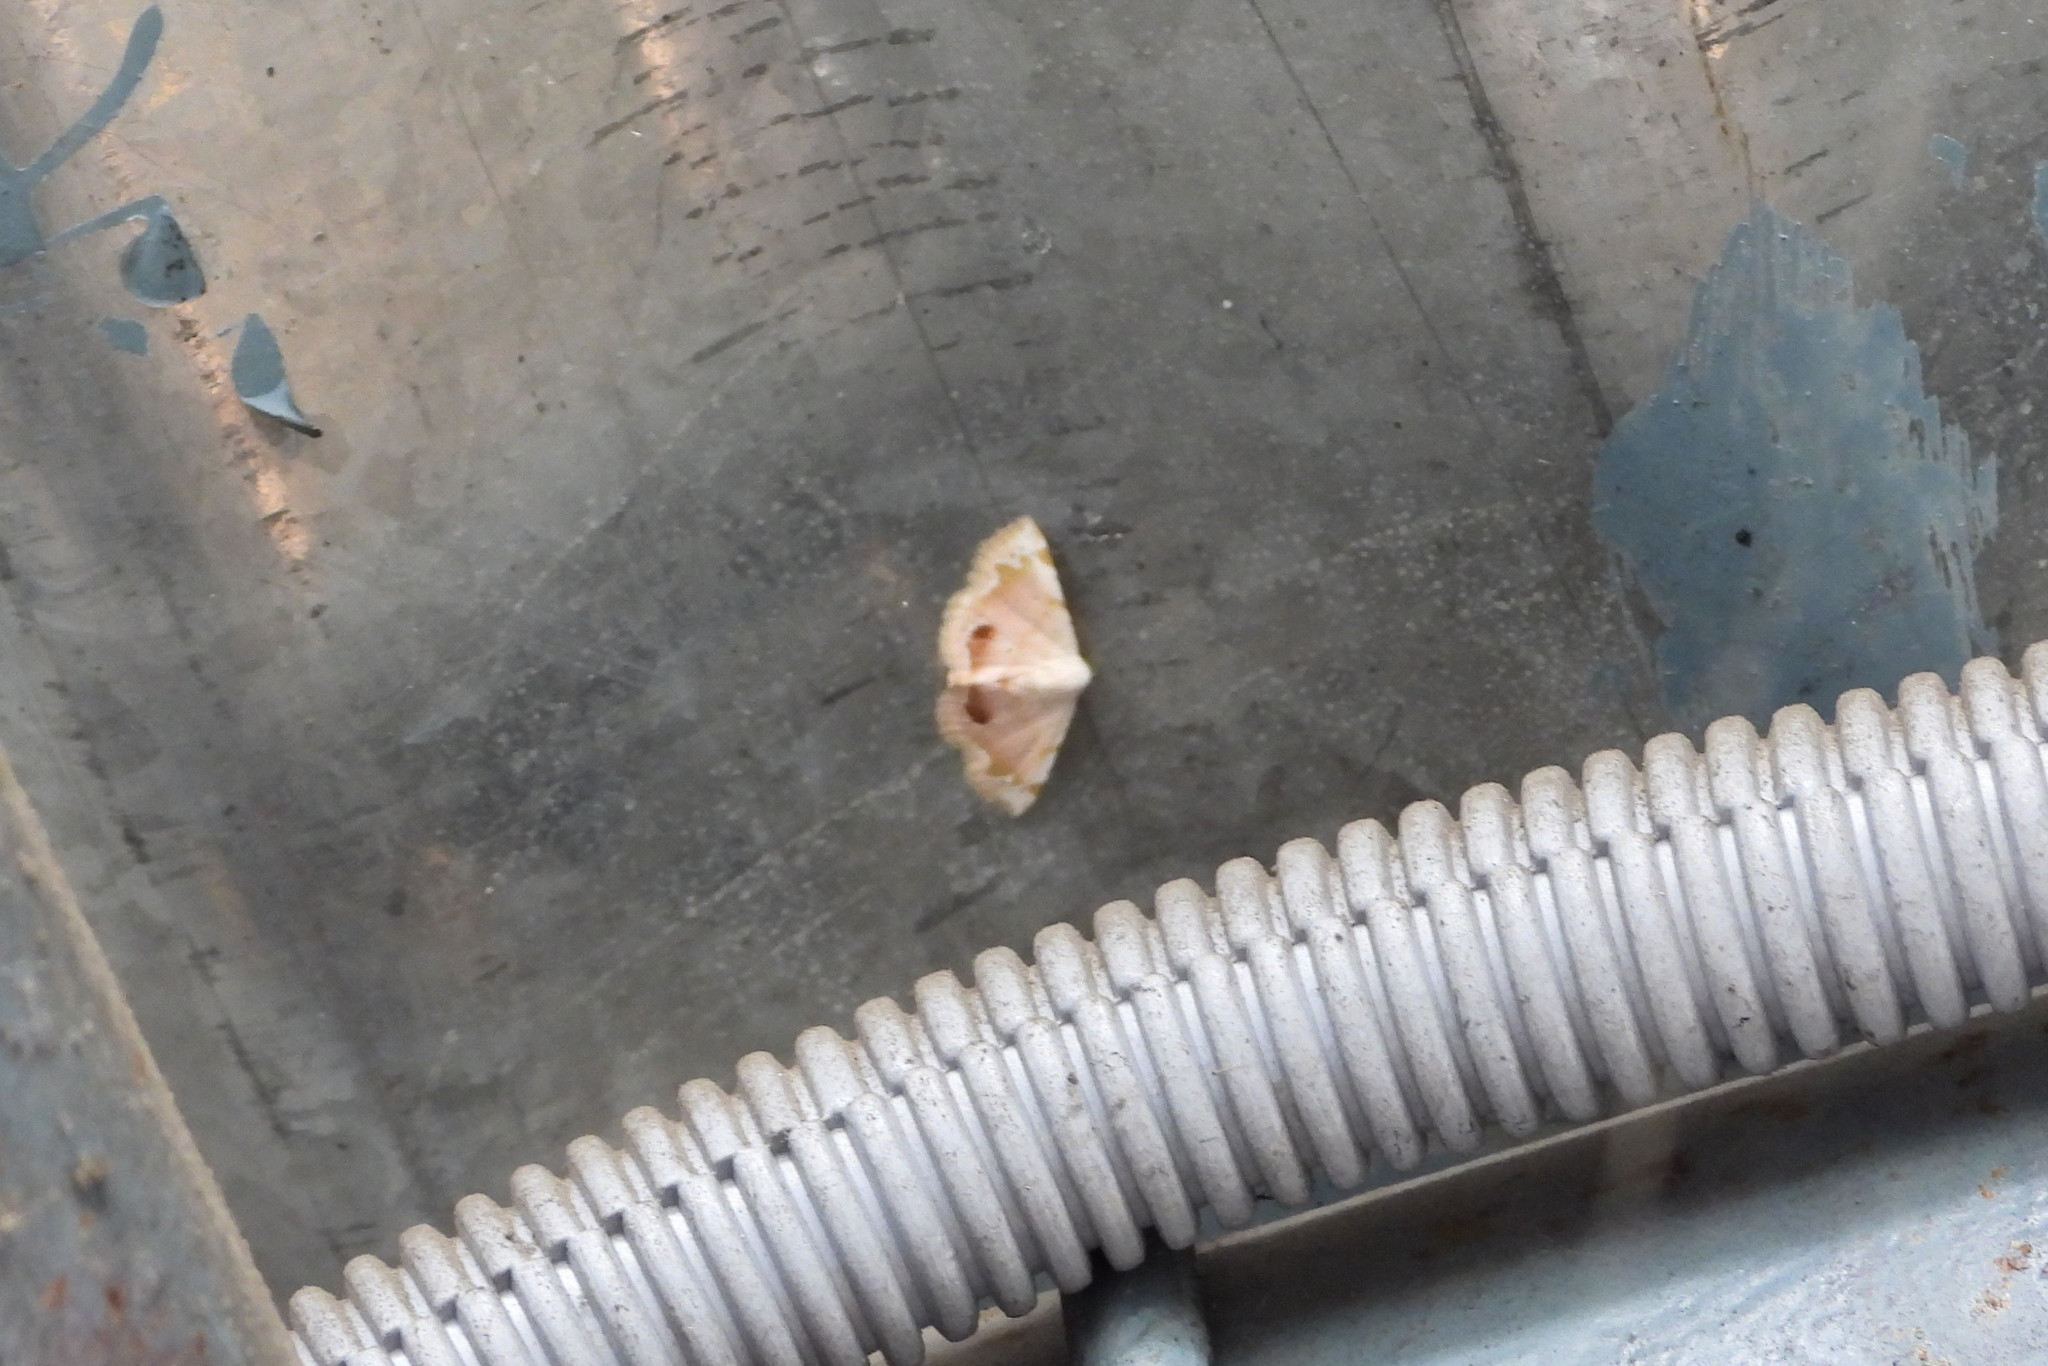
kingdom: Animalia
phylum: Arthropoda
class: Insecta
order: Lepidoptera
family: Noctuidae
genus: Eublemma
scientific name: Eublemma roseonivea
